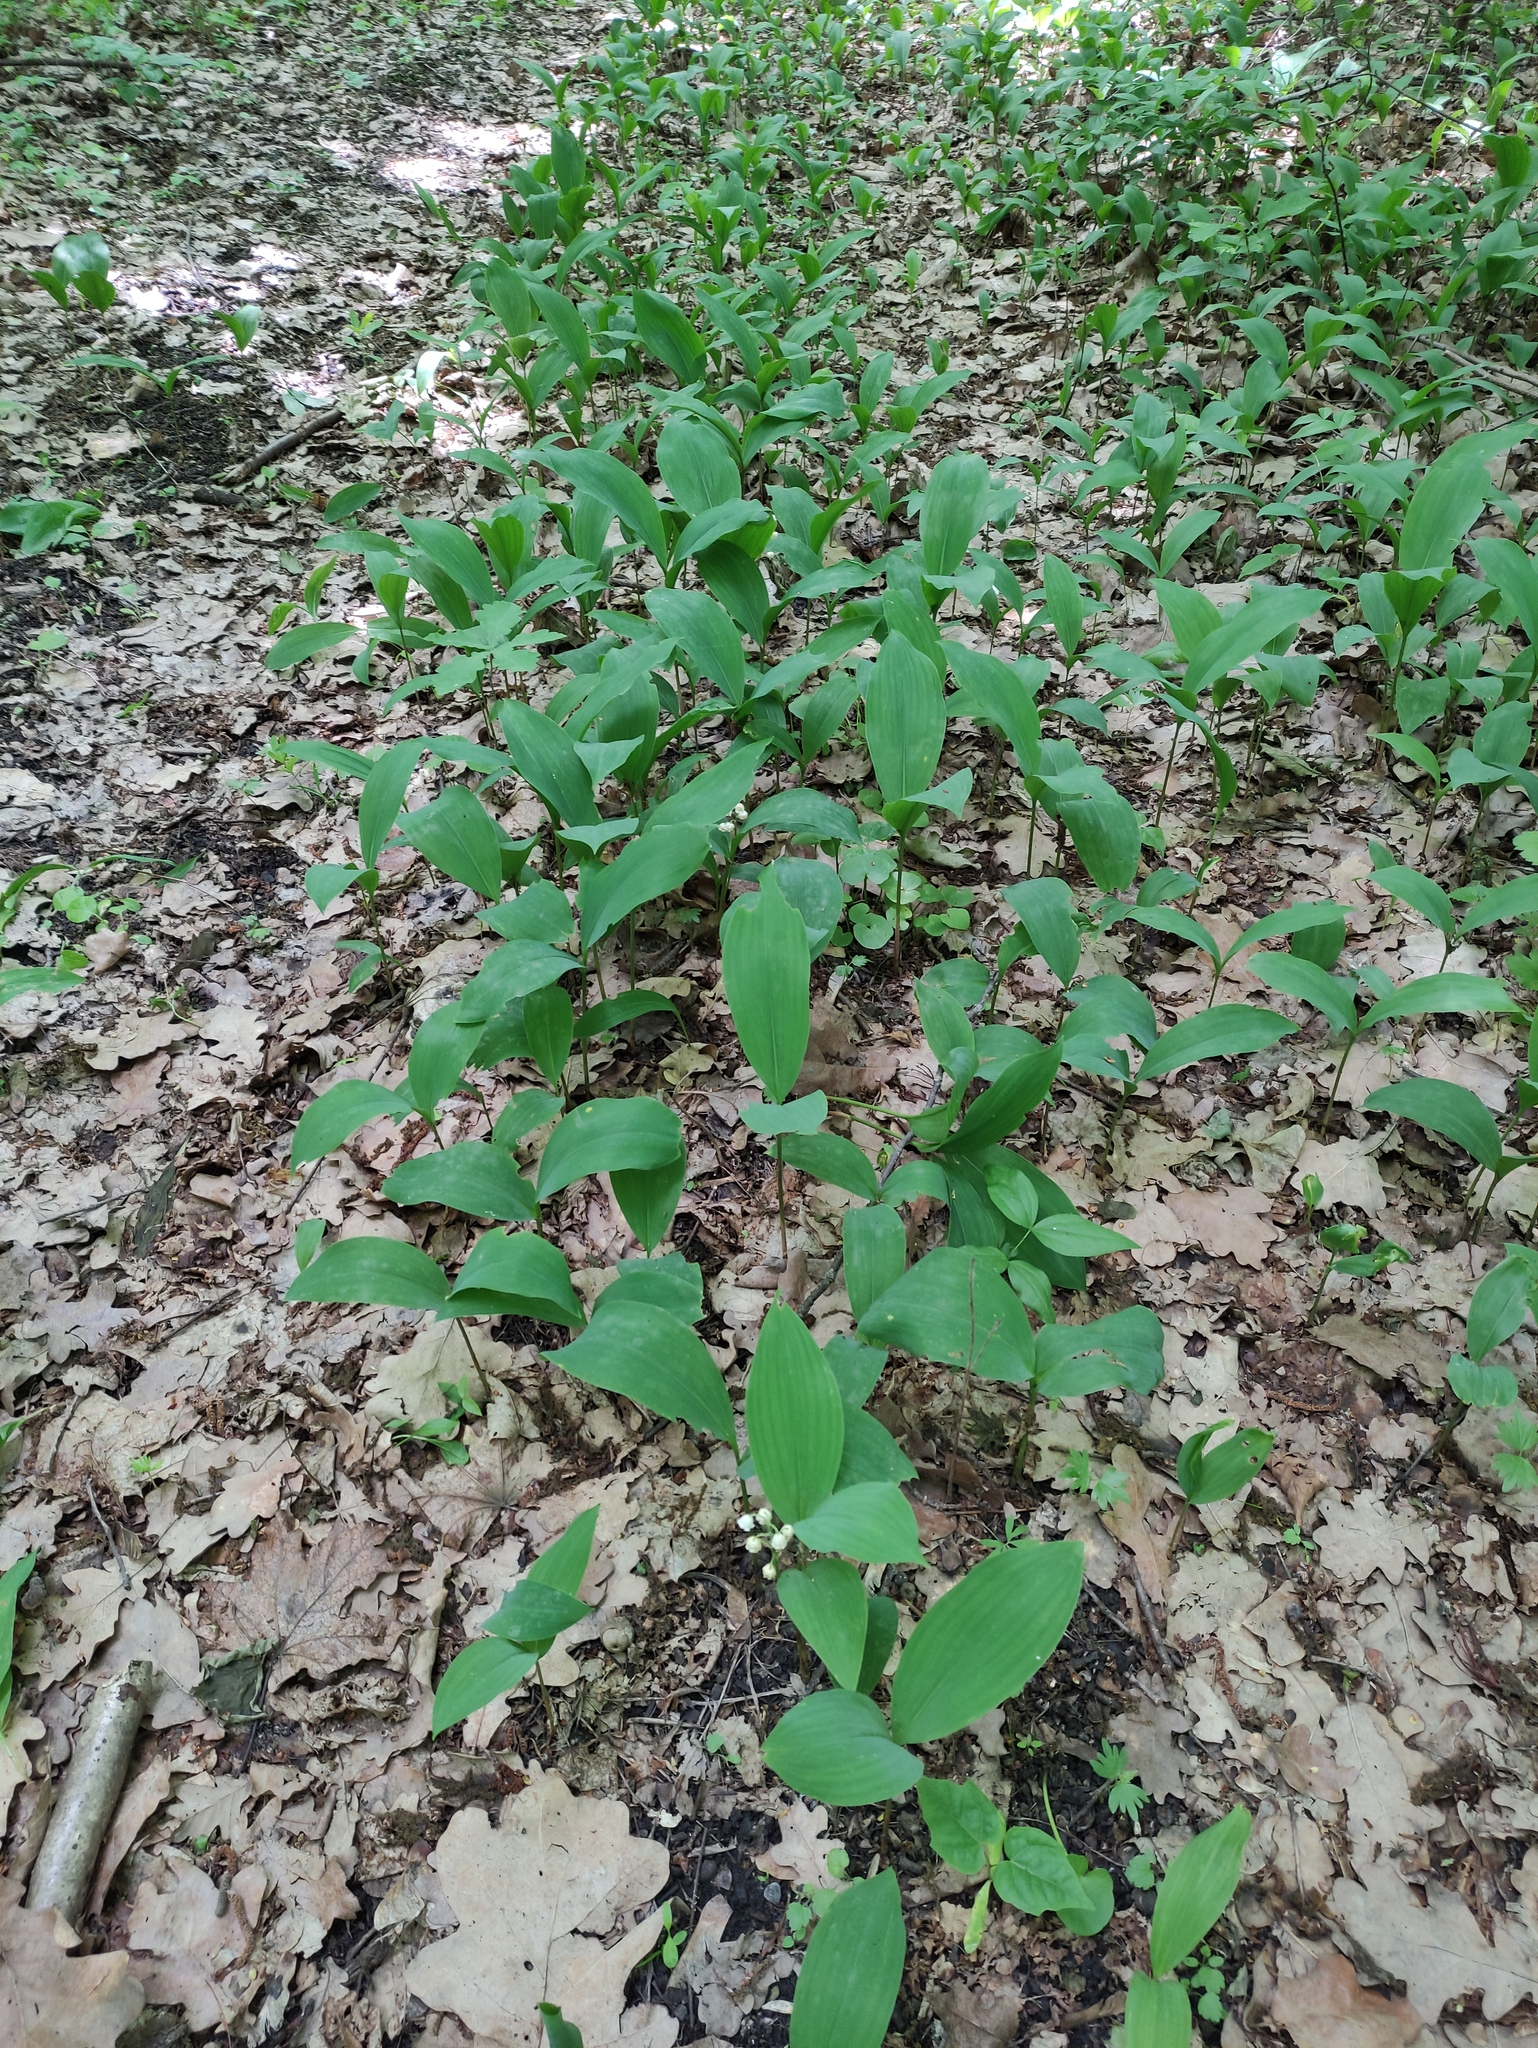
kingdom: Plantae
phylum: Tracheophyta
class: Liliopsida
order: Asparagales
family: Asparagaceae
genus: Convallaria
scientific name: Convallaria majalis
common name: Lily-of-the-valley
